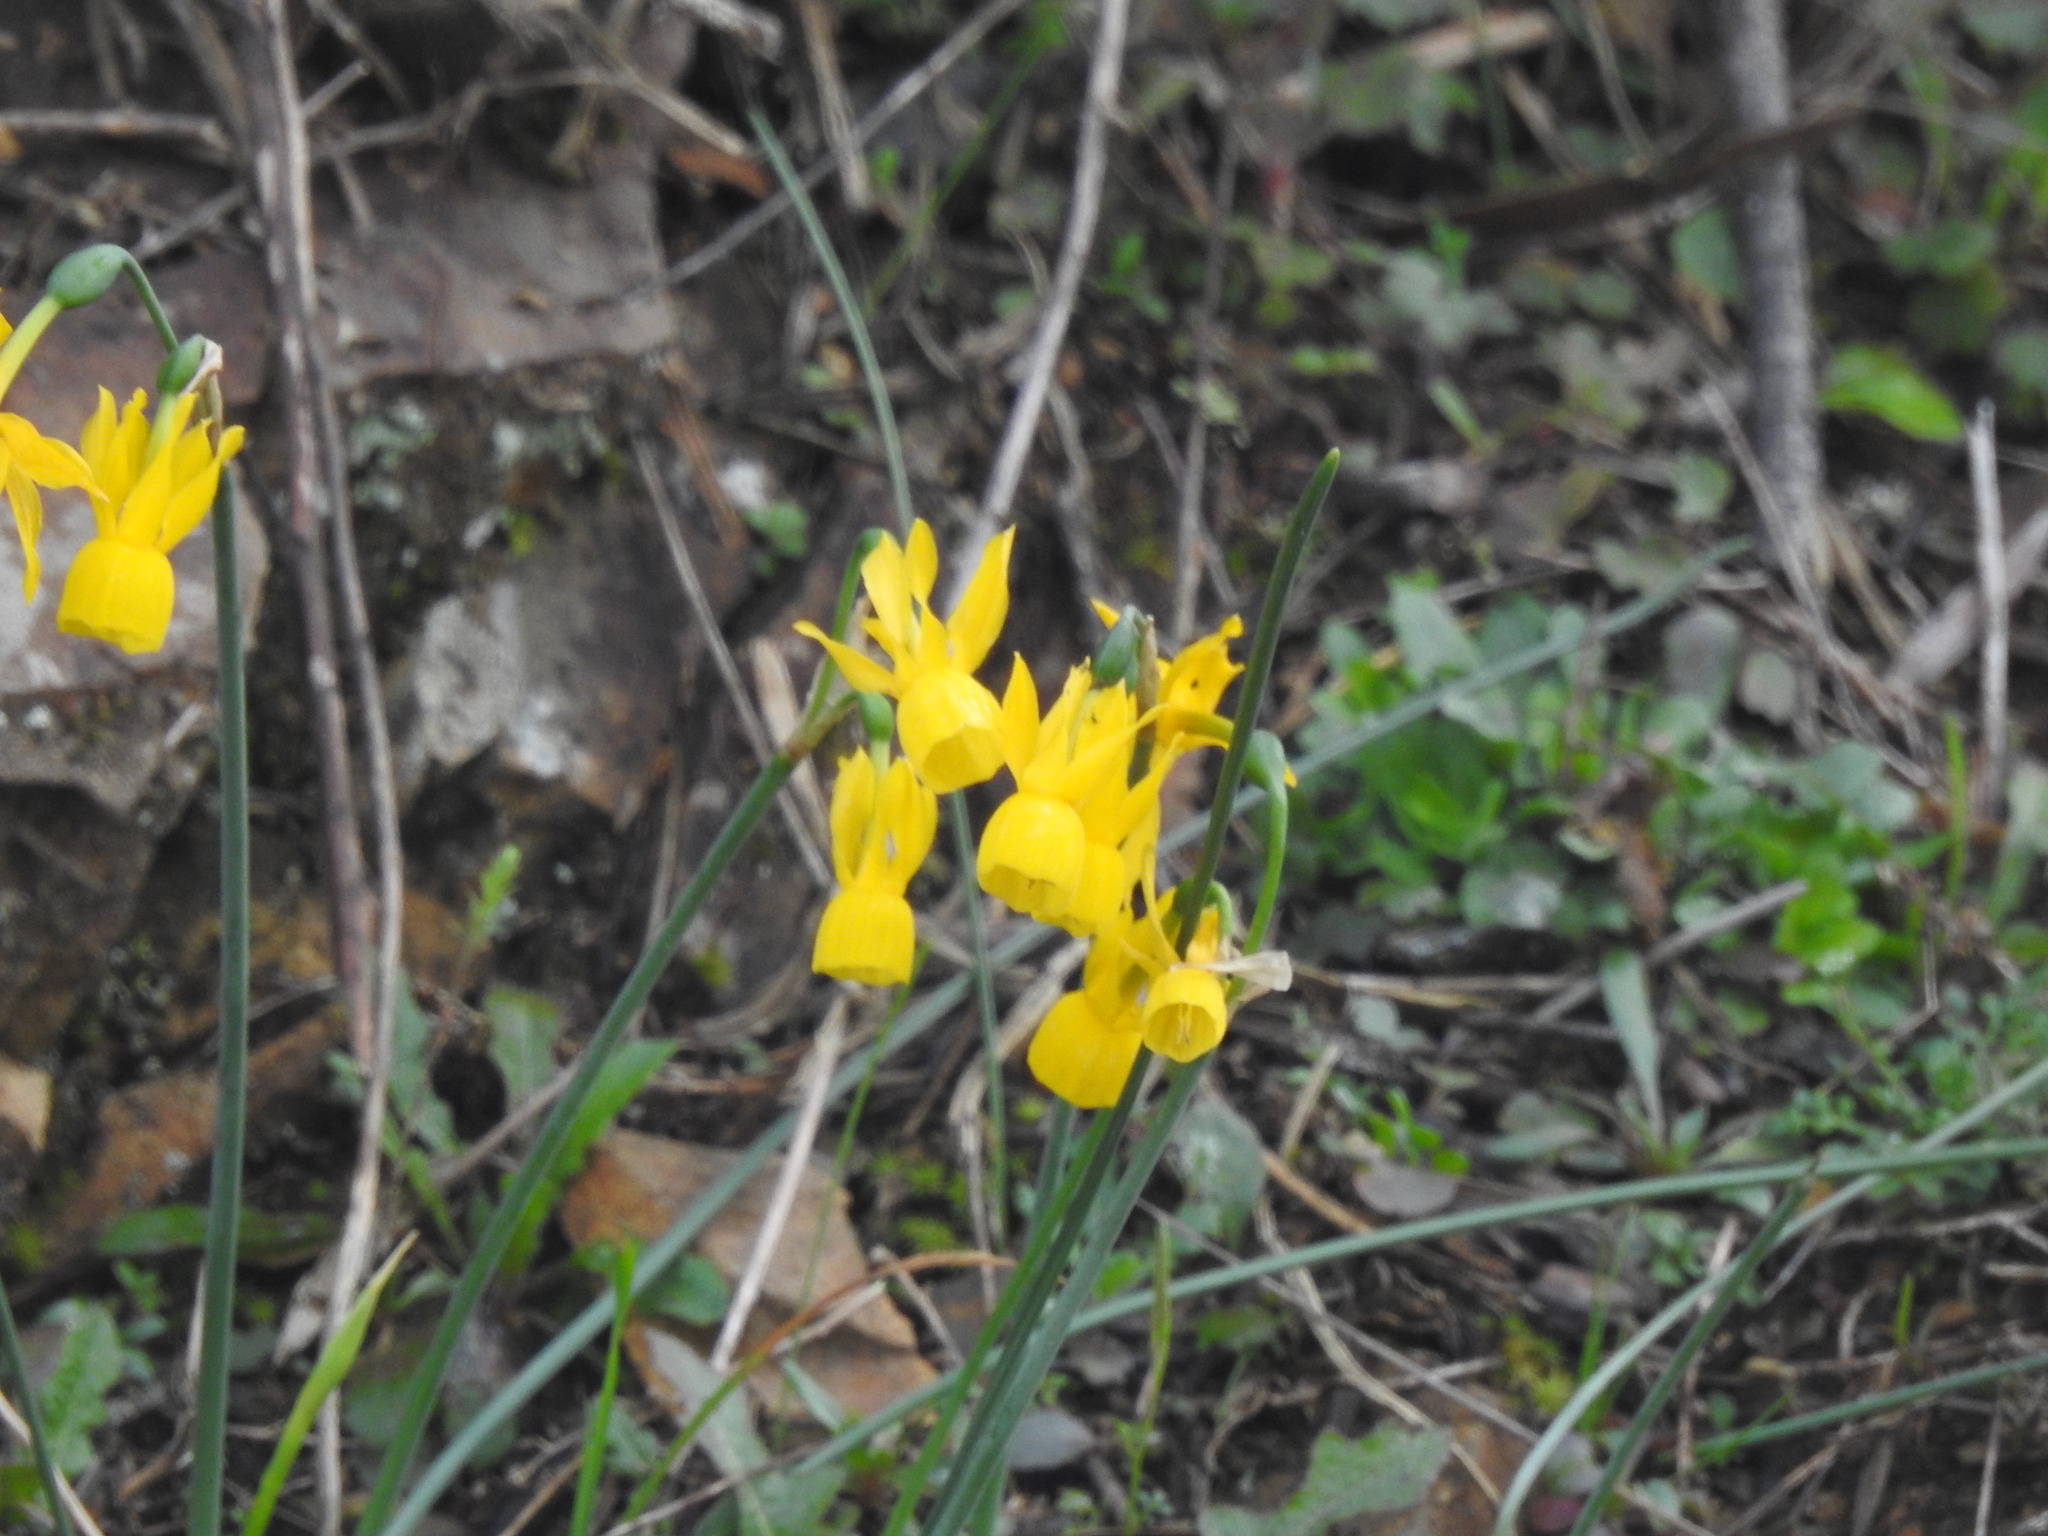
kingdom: Plantae
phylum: Tracheophyta
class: Liliopsida
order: Asparagales
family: Amaryllidaceae
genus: Narcissus
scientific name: Narcissus triandrus
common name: Angel's-tears
